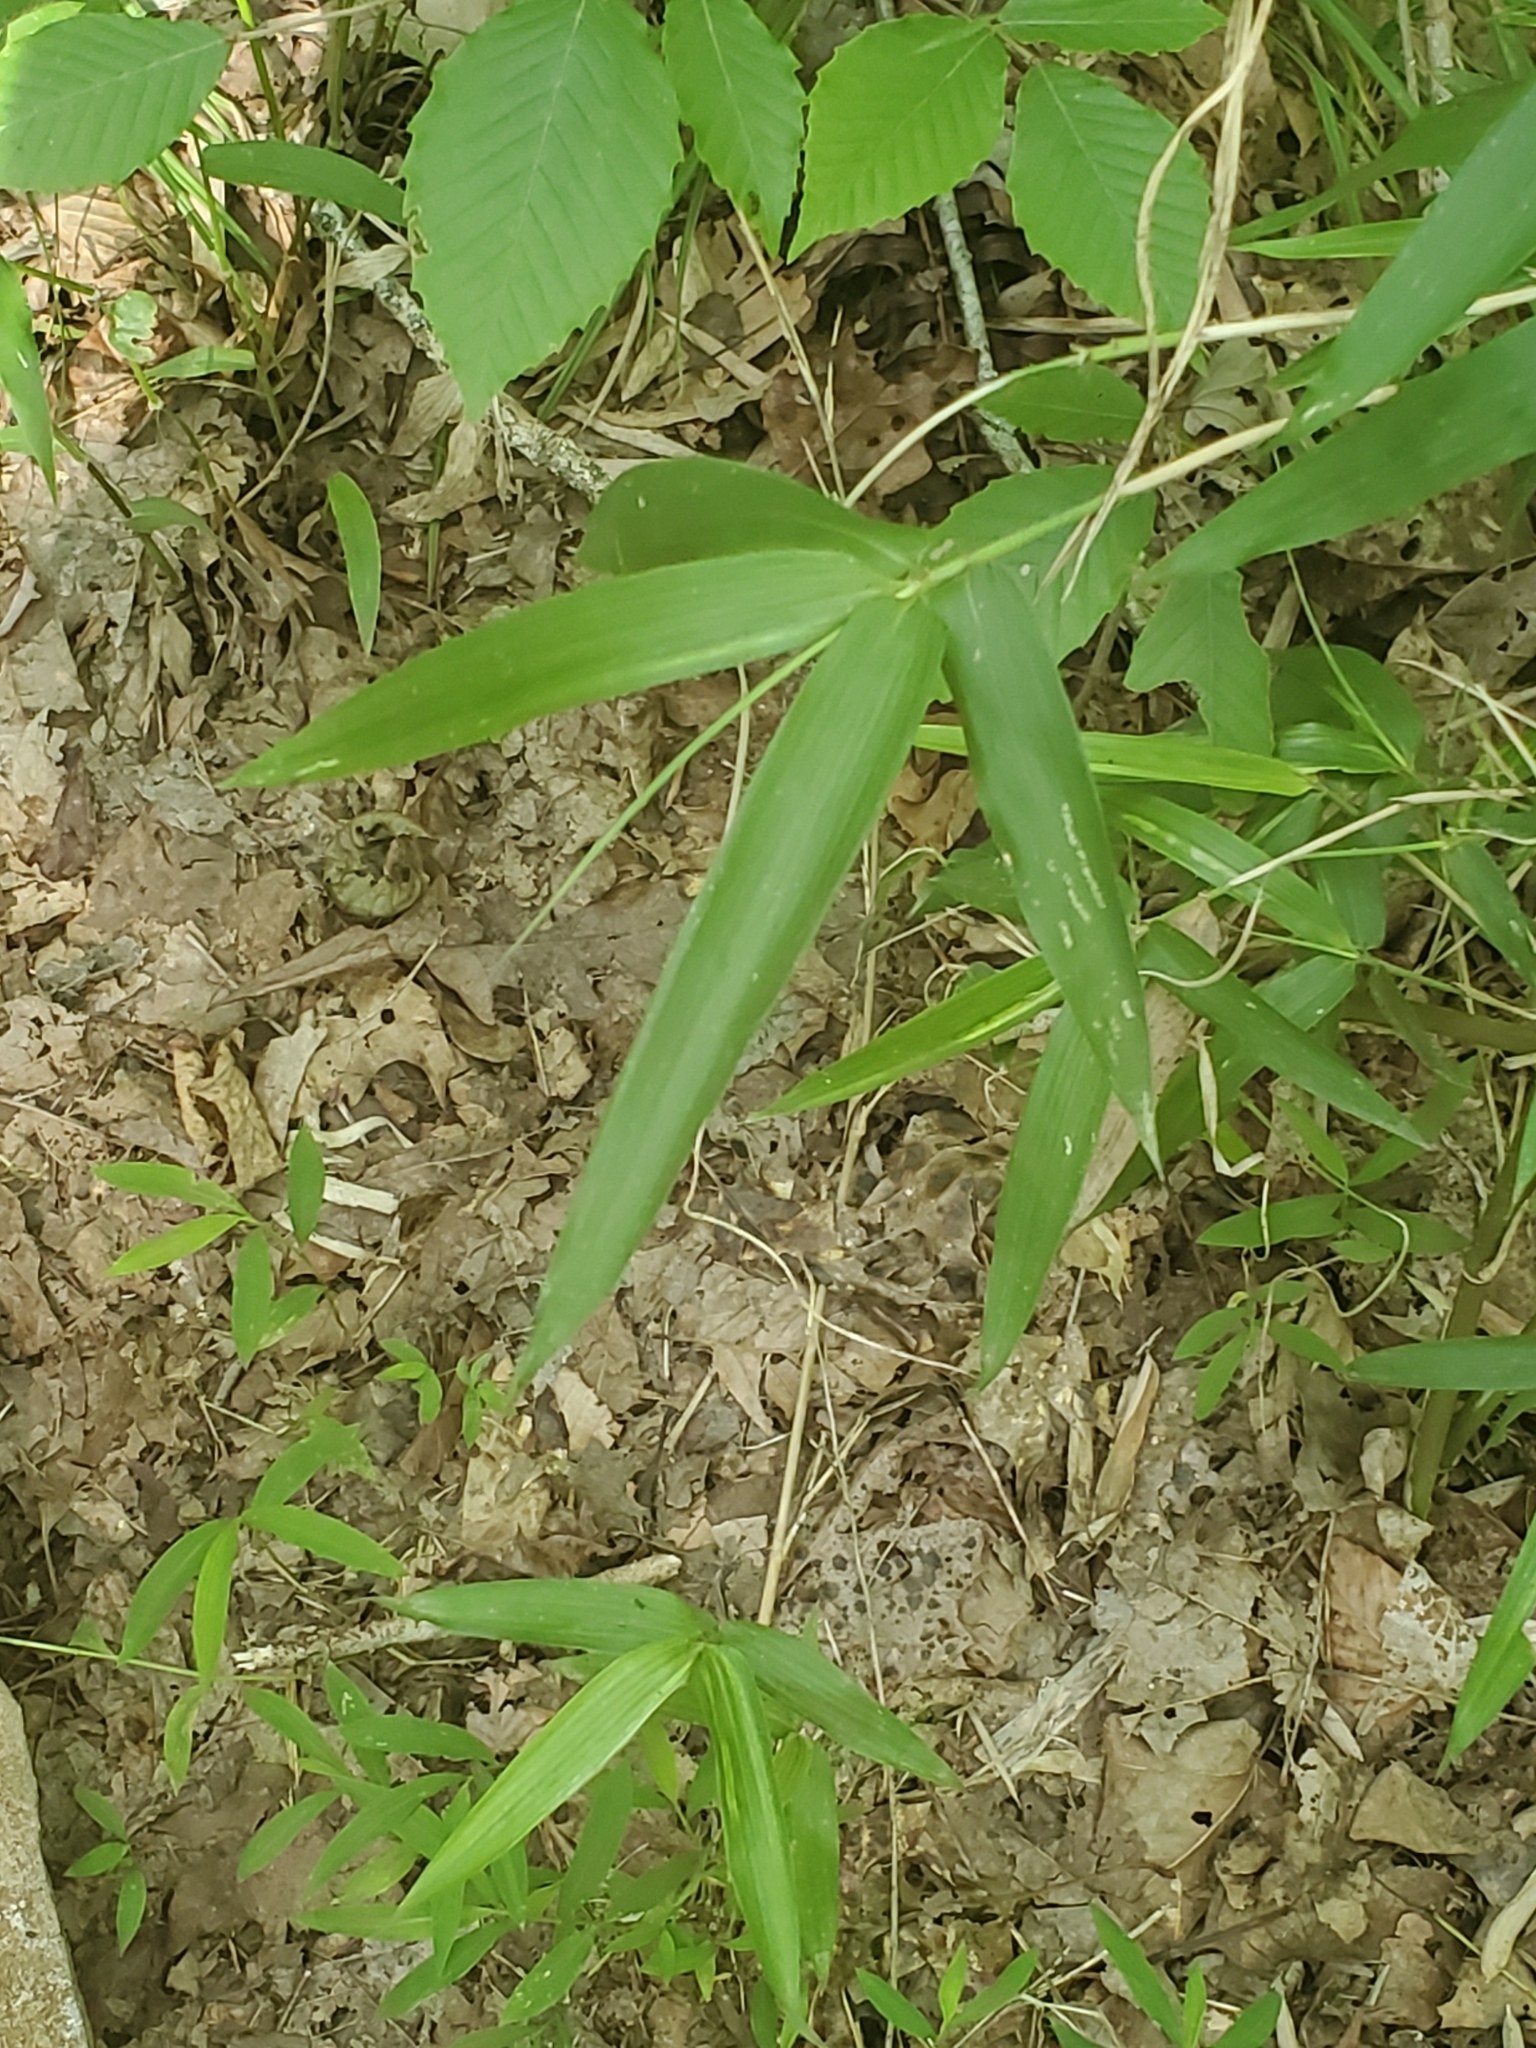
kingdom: Plantae
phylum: Tracheophyta
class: Liliopsida
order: Poales
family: Poaceae
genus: Arundinaria
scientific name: Arundinaria gigantea
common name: Giant cane
